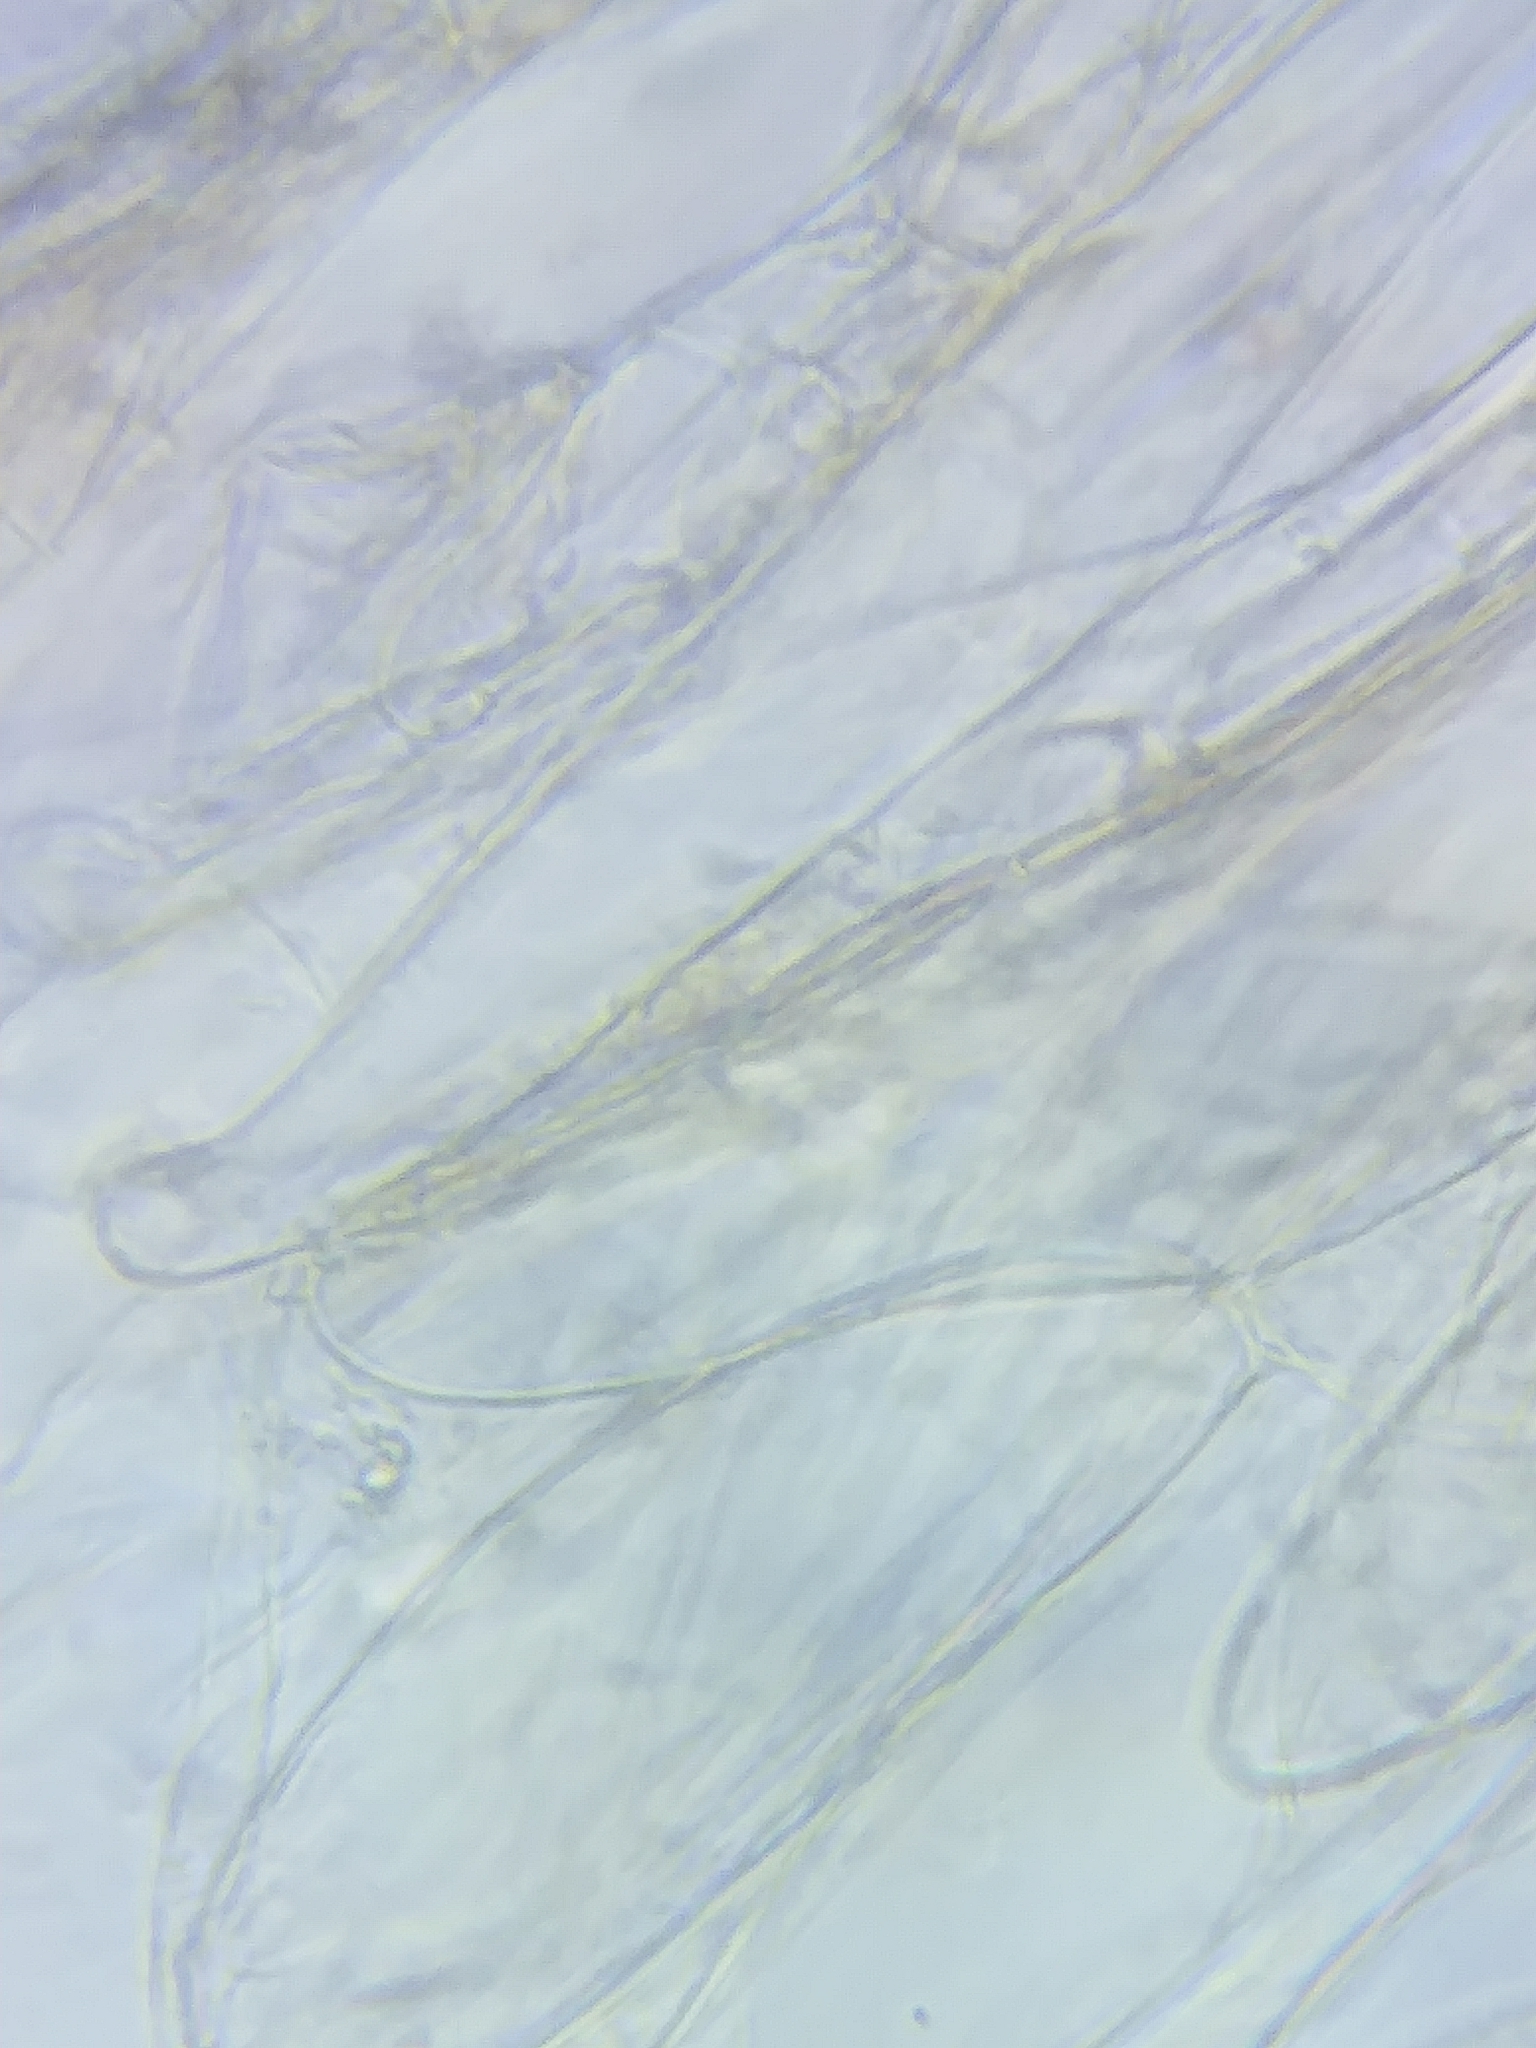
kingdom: Fungi
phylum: Basidiomycota
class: Agaricomycetes
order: Agaricales
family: Cortinariaceae
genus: Cortinarius
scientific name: Cortinarius valgus
